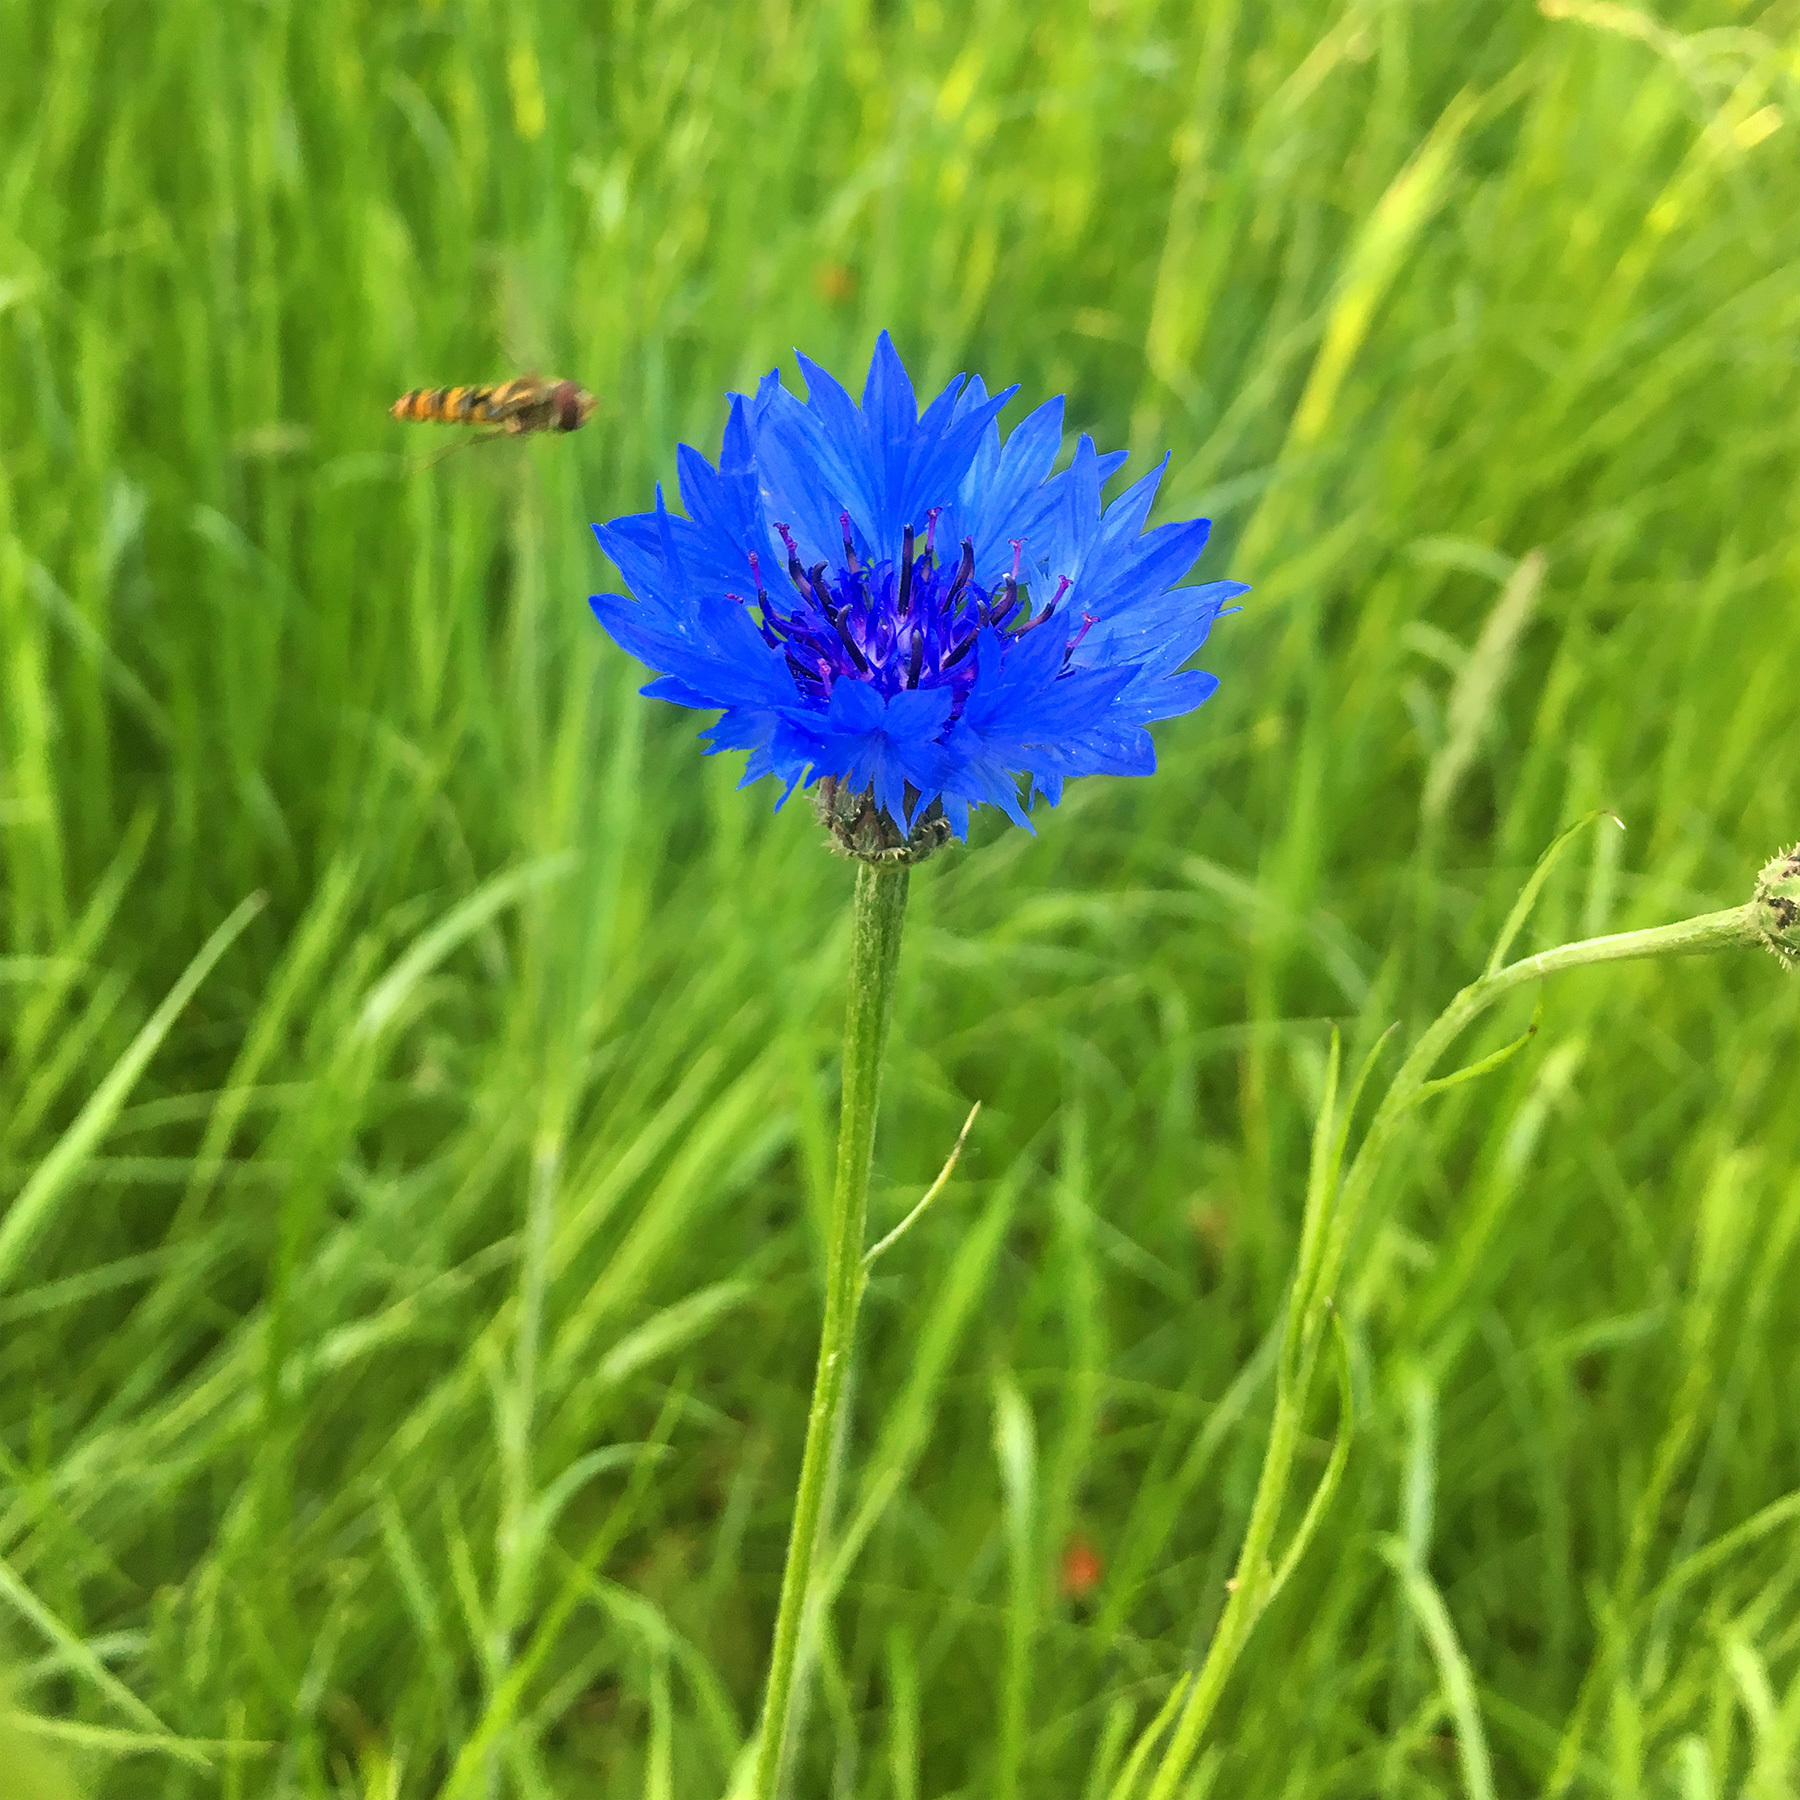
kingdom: Plantae
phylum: Tracheophyta
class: Magnoliopsida
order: Asterales
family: Asteraceae
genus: Centaurea
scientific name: Centaurea cyanus
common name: Cornflower
